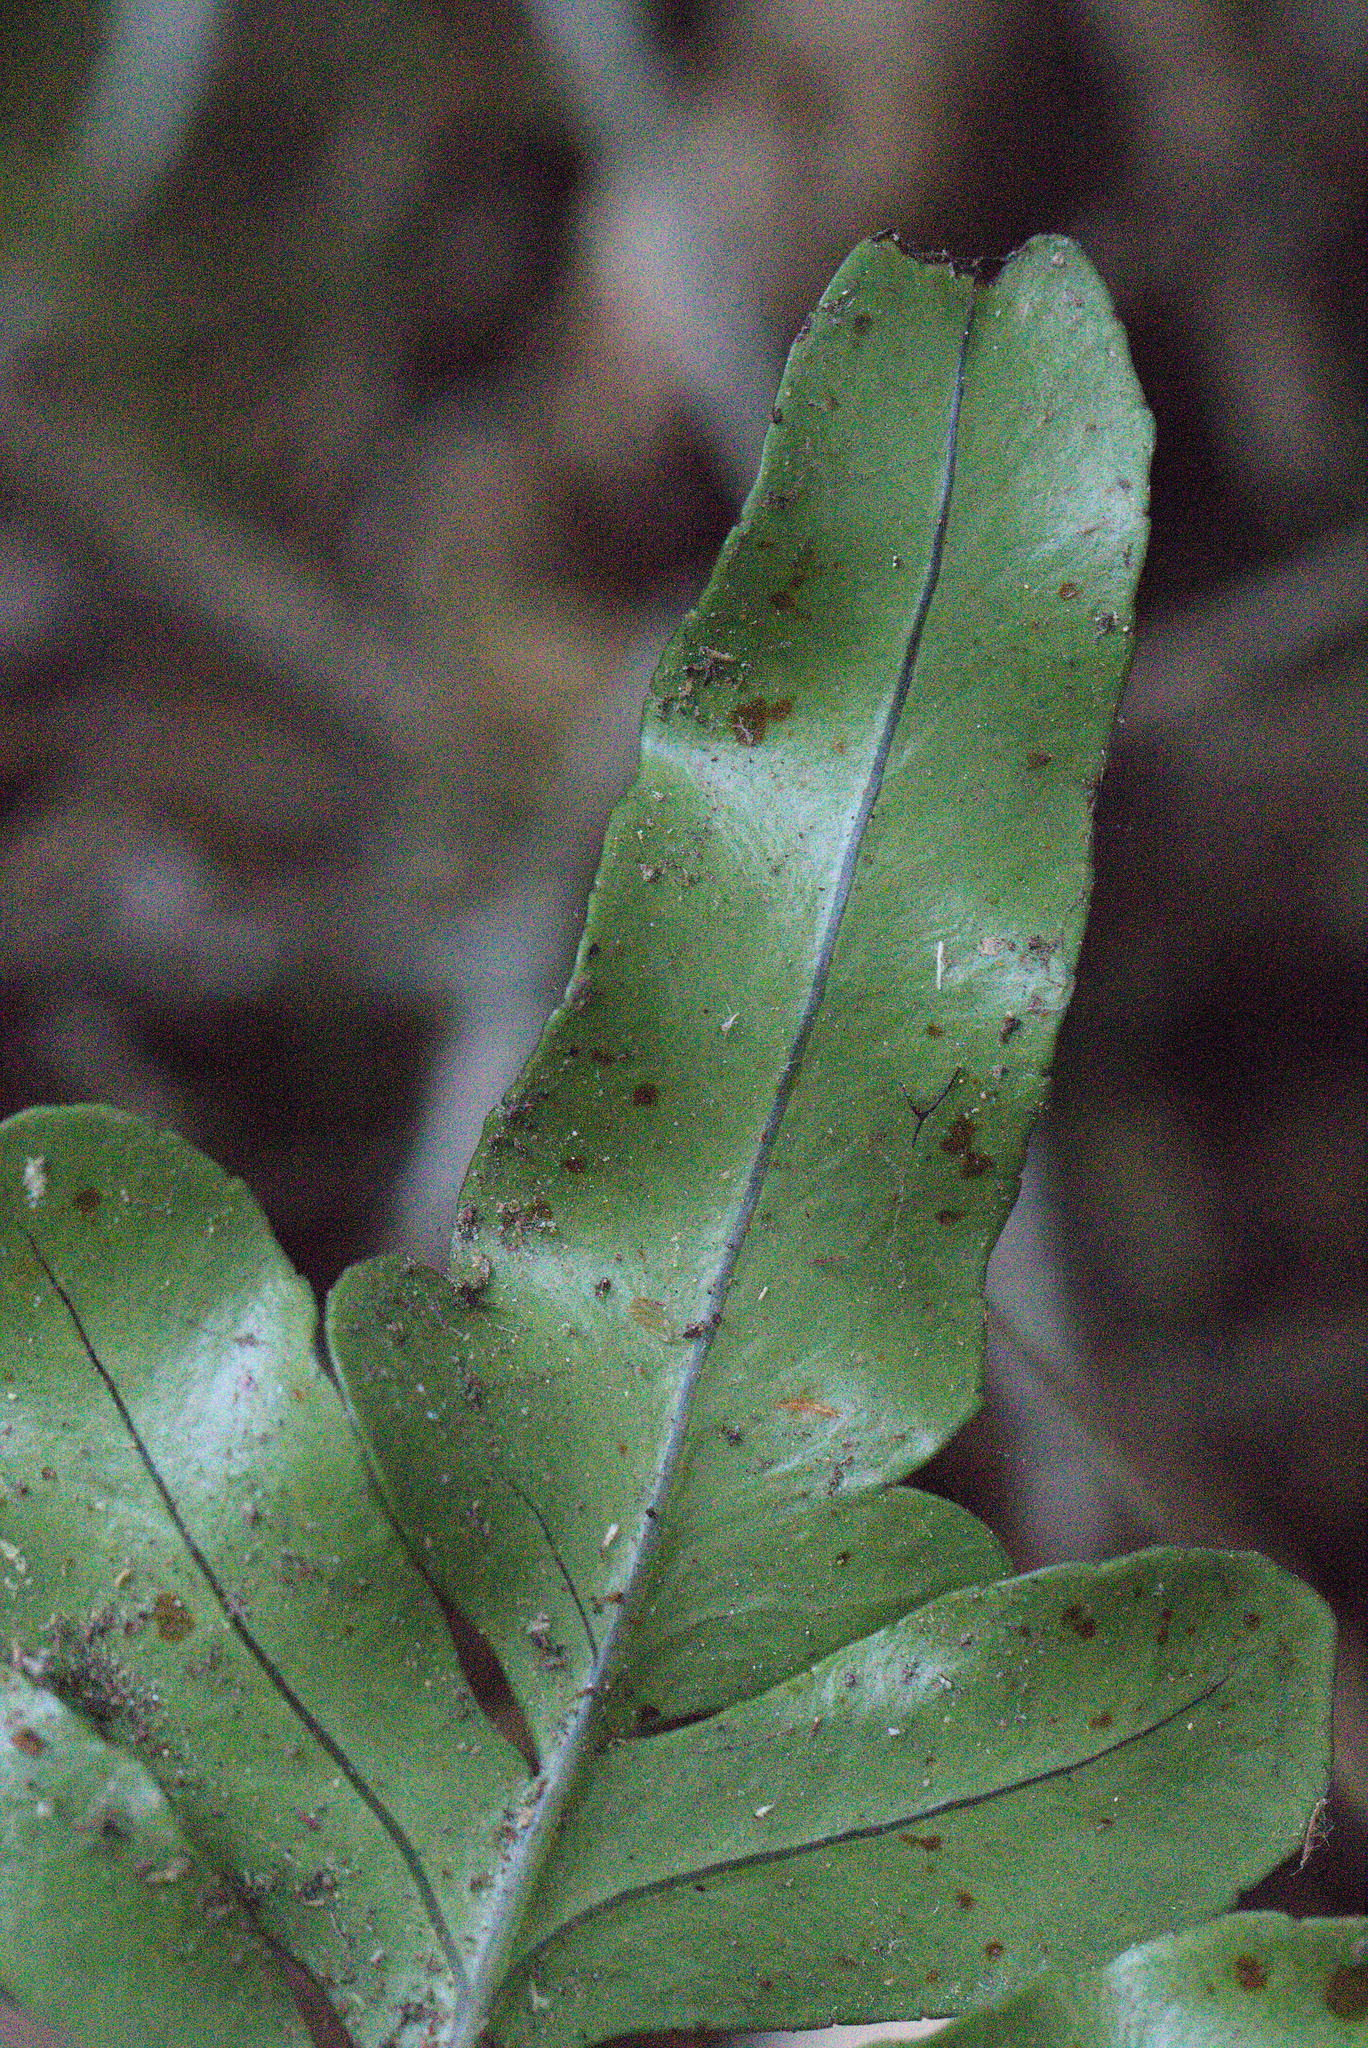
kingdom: Plantae
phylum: Tracheophyta
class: Polypodiopsida
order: Polypodiales
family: Polypodiaceae
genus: Polypodium
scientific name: Polypodium scouleri
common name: Scouler's polypody
